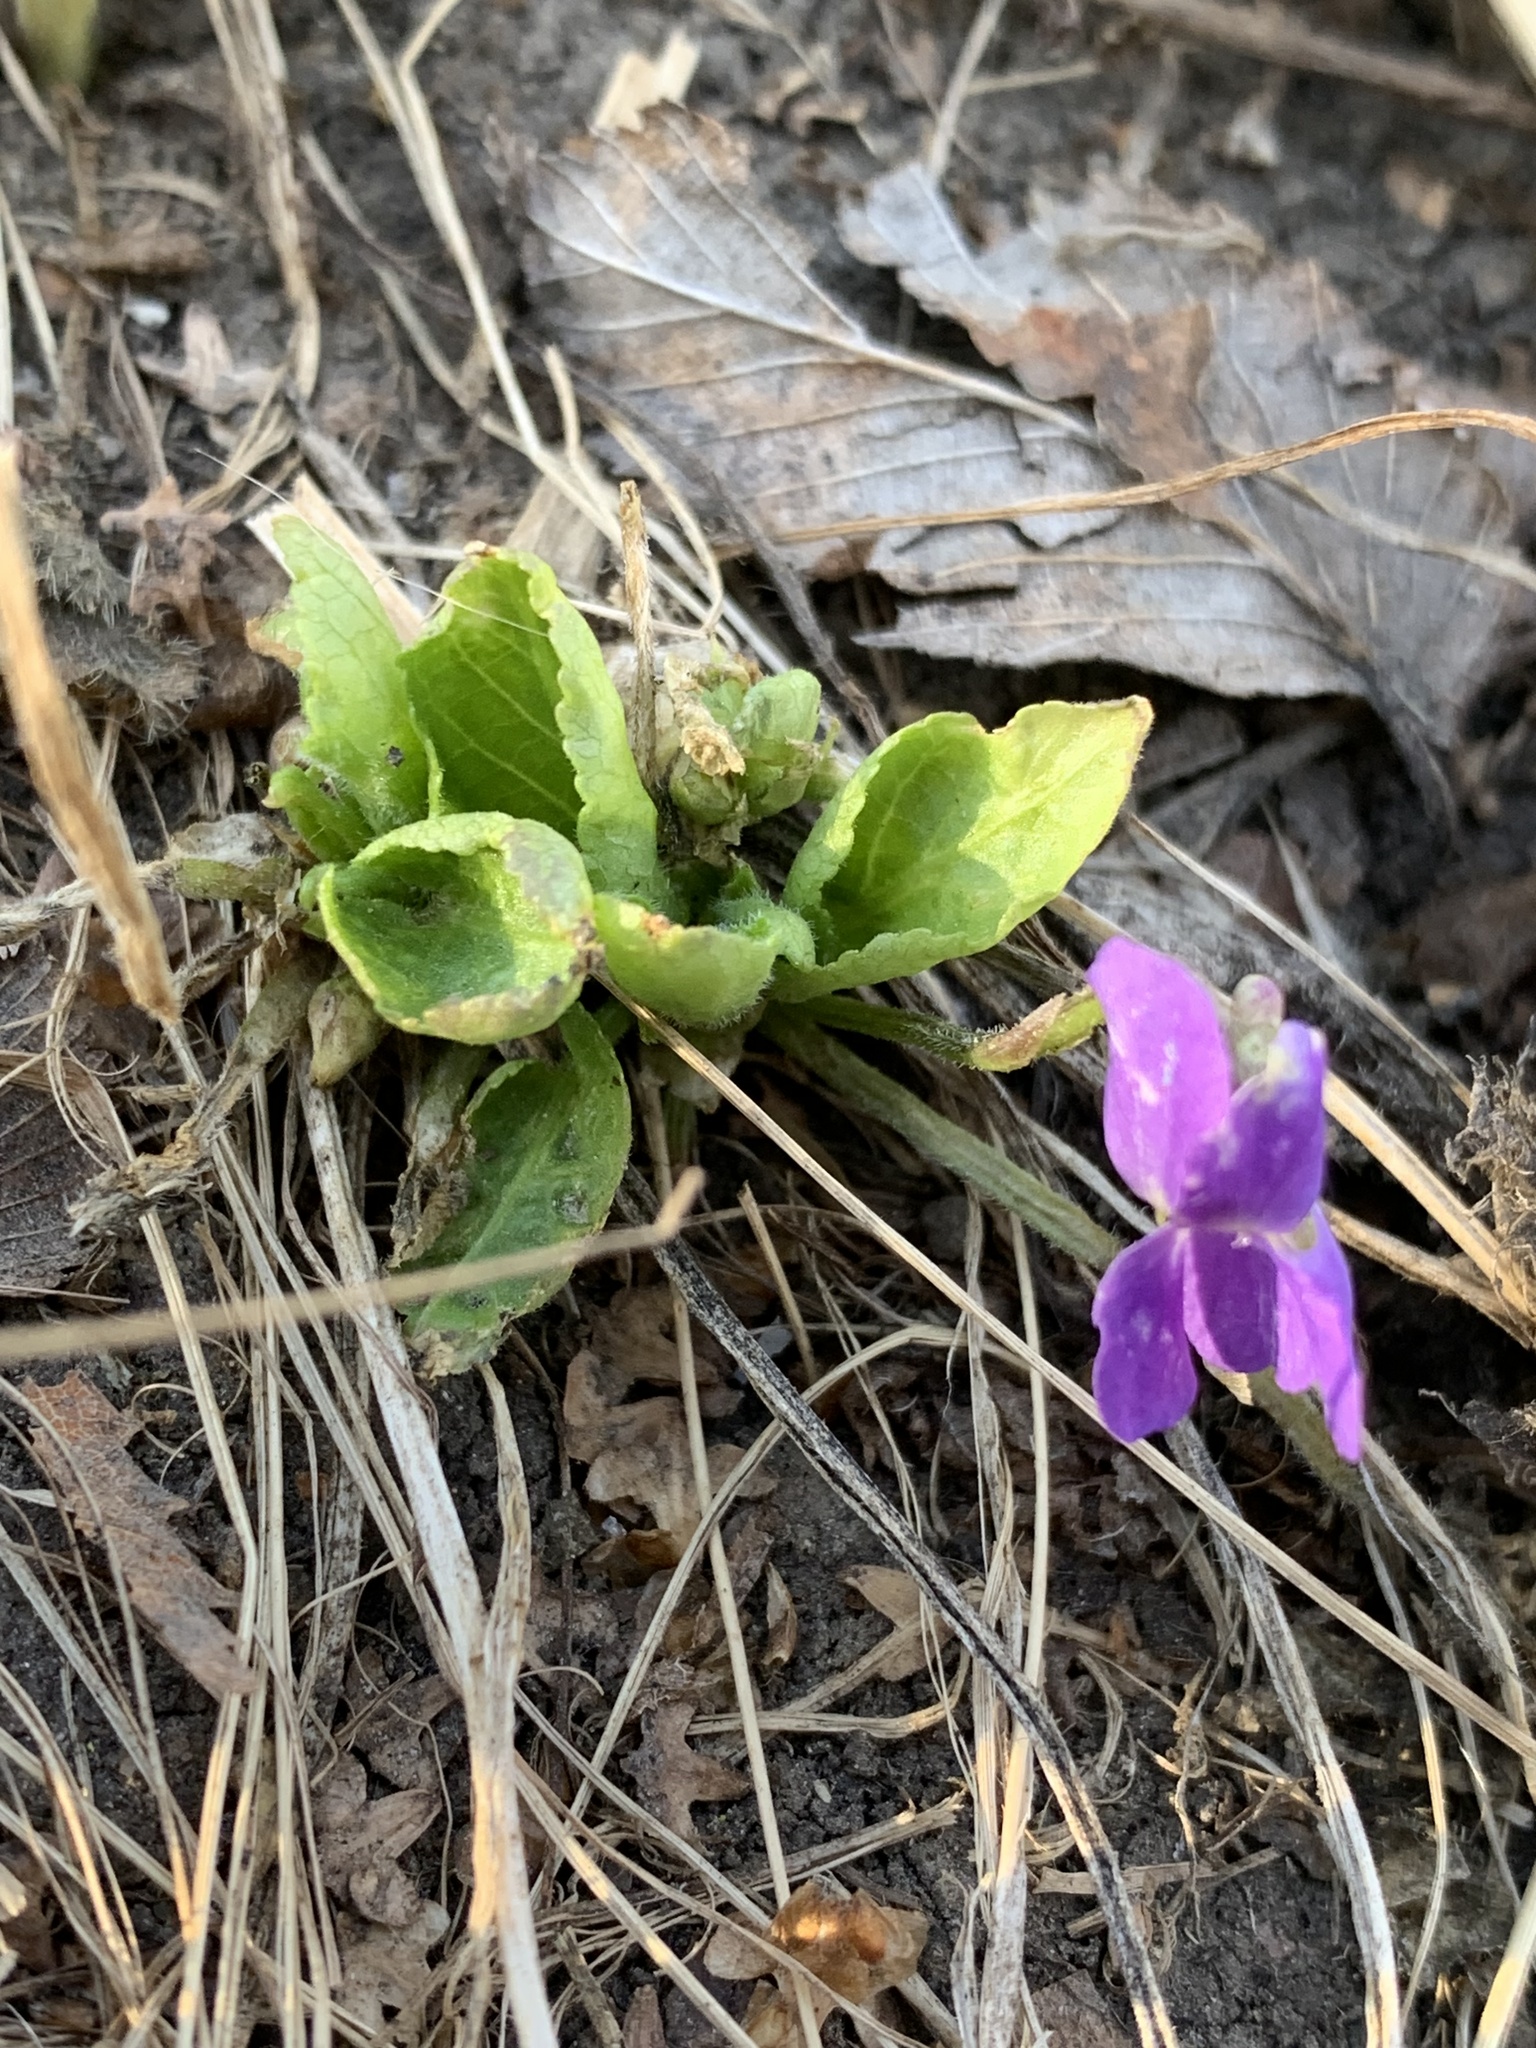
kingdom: Plantae
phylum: Tracheophyta
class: Magnoliopsida
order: Malpighiales
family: Violaceae
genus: Viola
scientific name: Viola hirta
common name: Hairy violet
